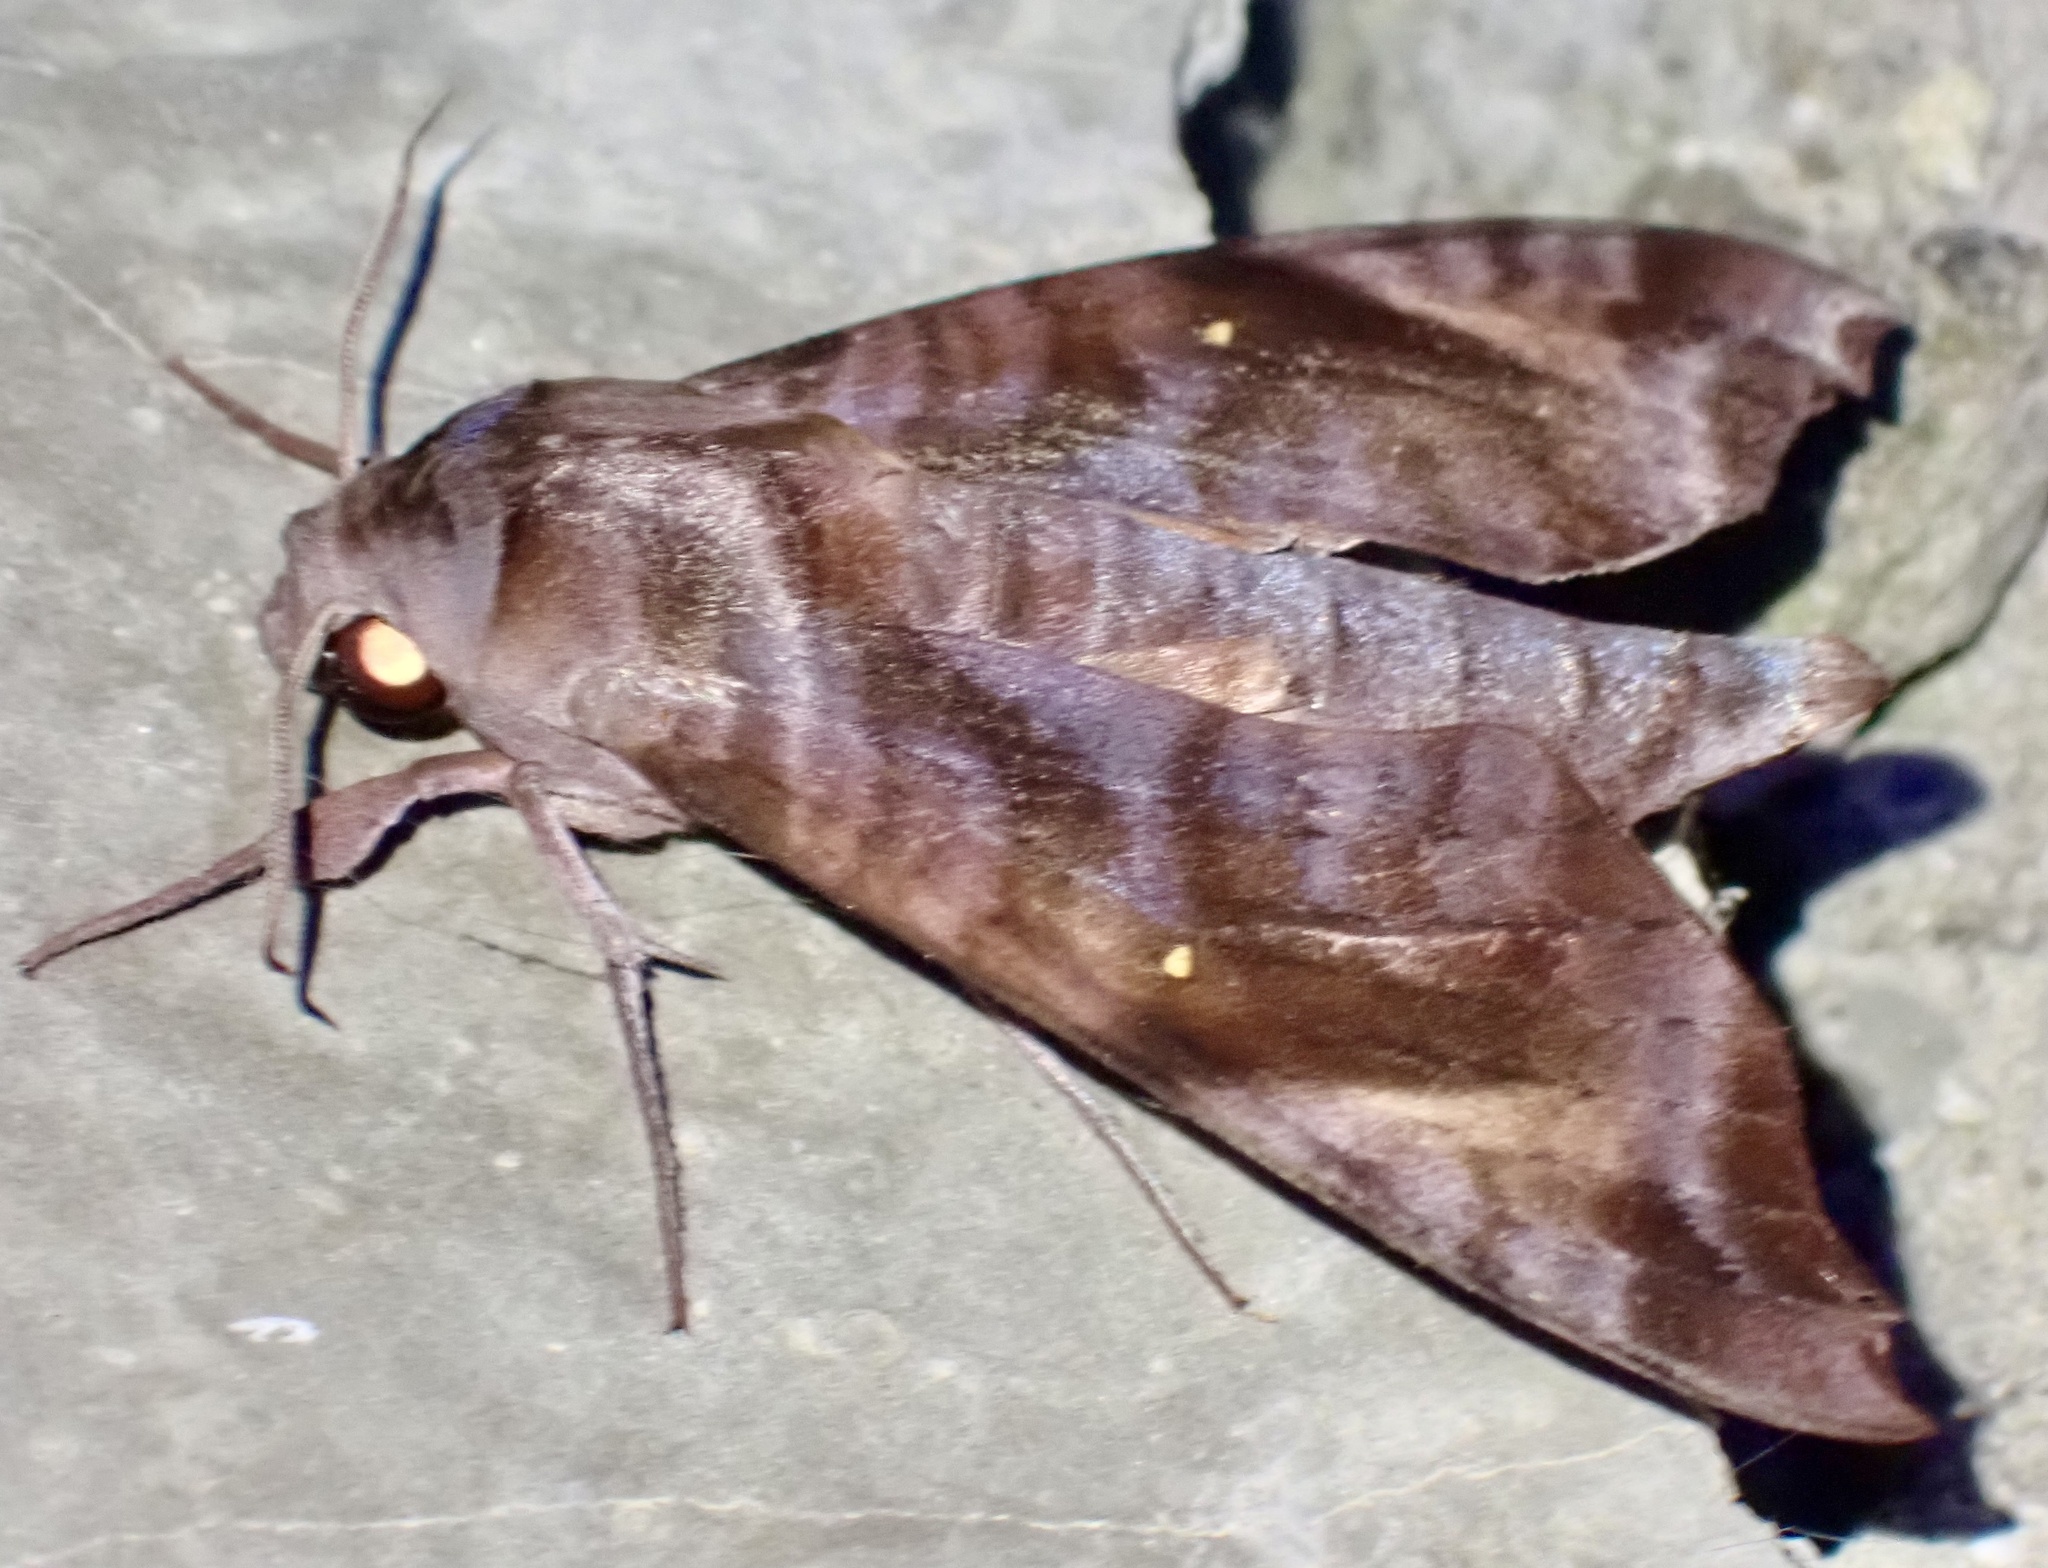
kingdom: Animalia
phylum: Arthropoda
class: Insecta
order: Lepidoptera
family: Sphingidae
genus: Acosmeryx
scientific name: Acosmeryx anceus
